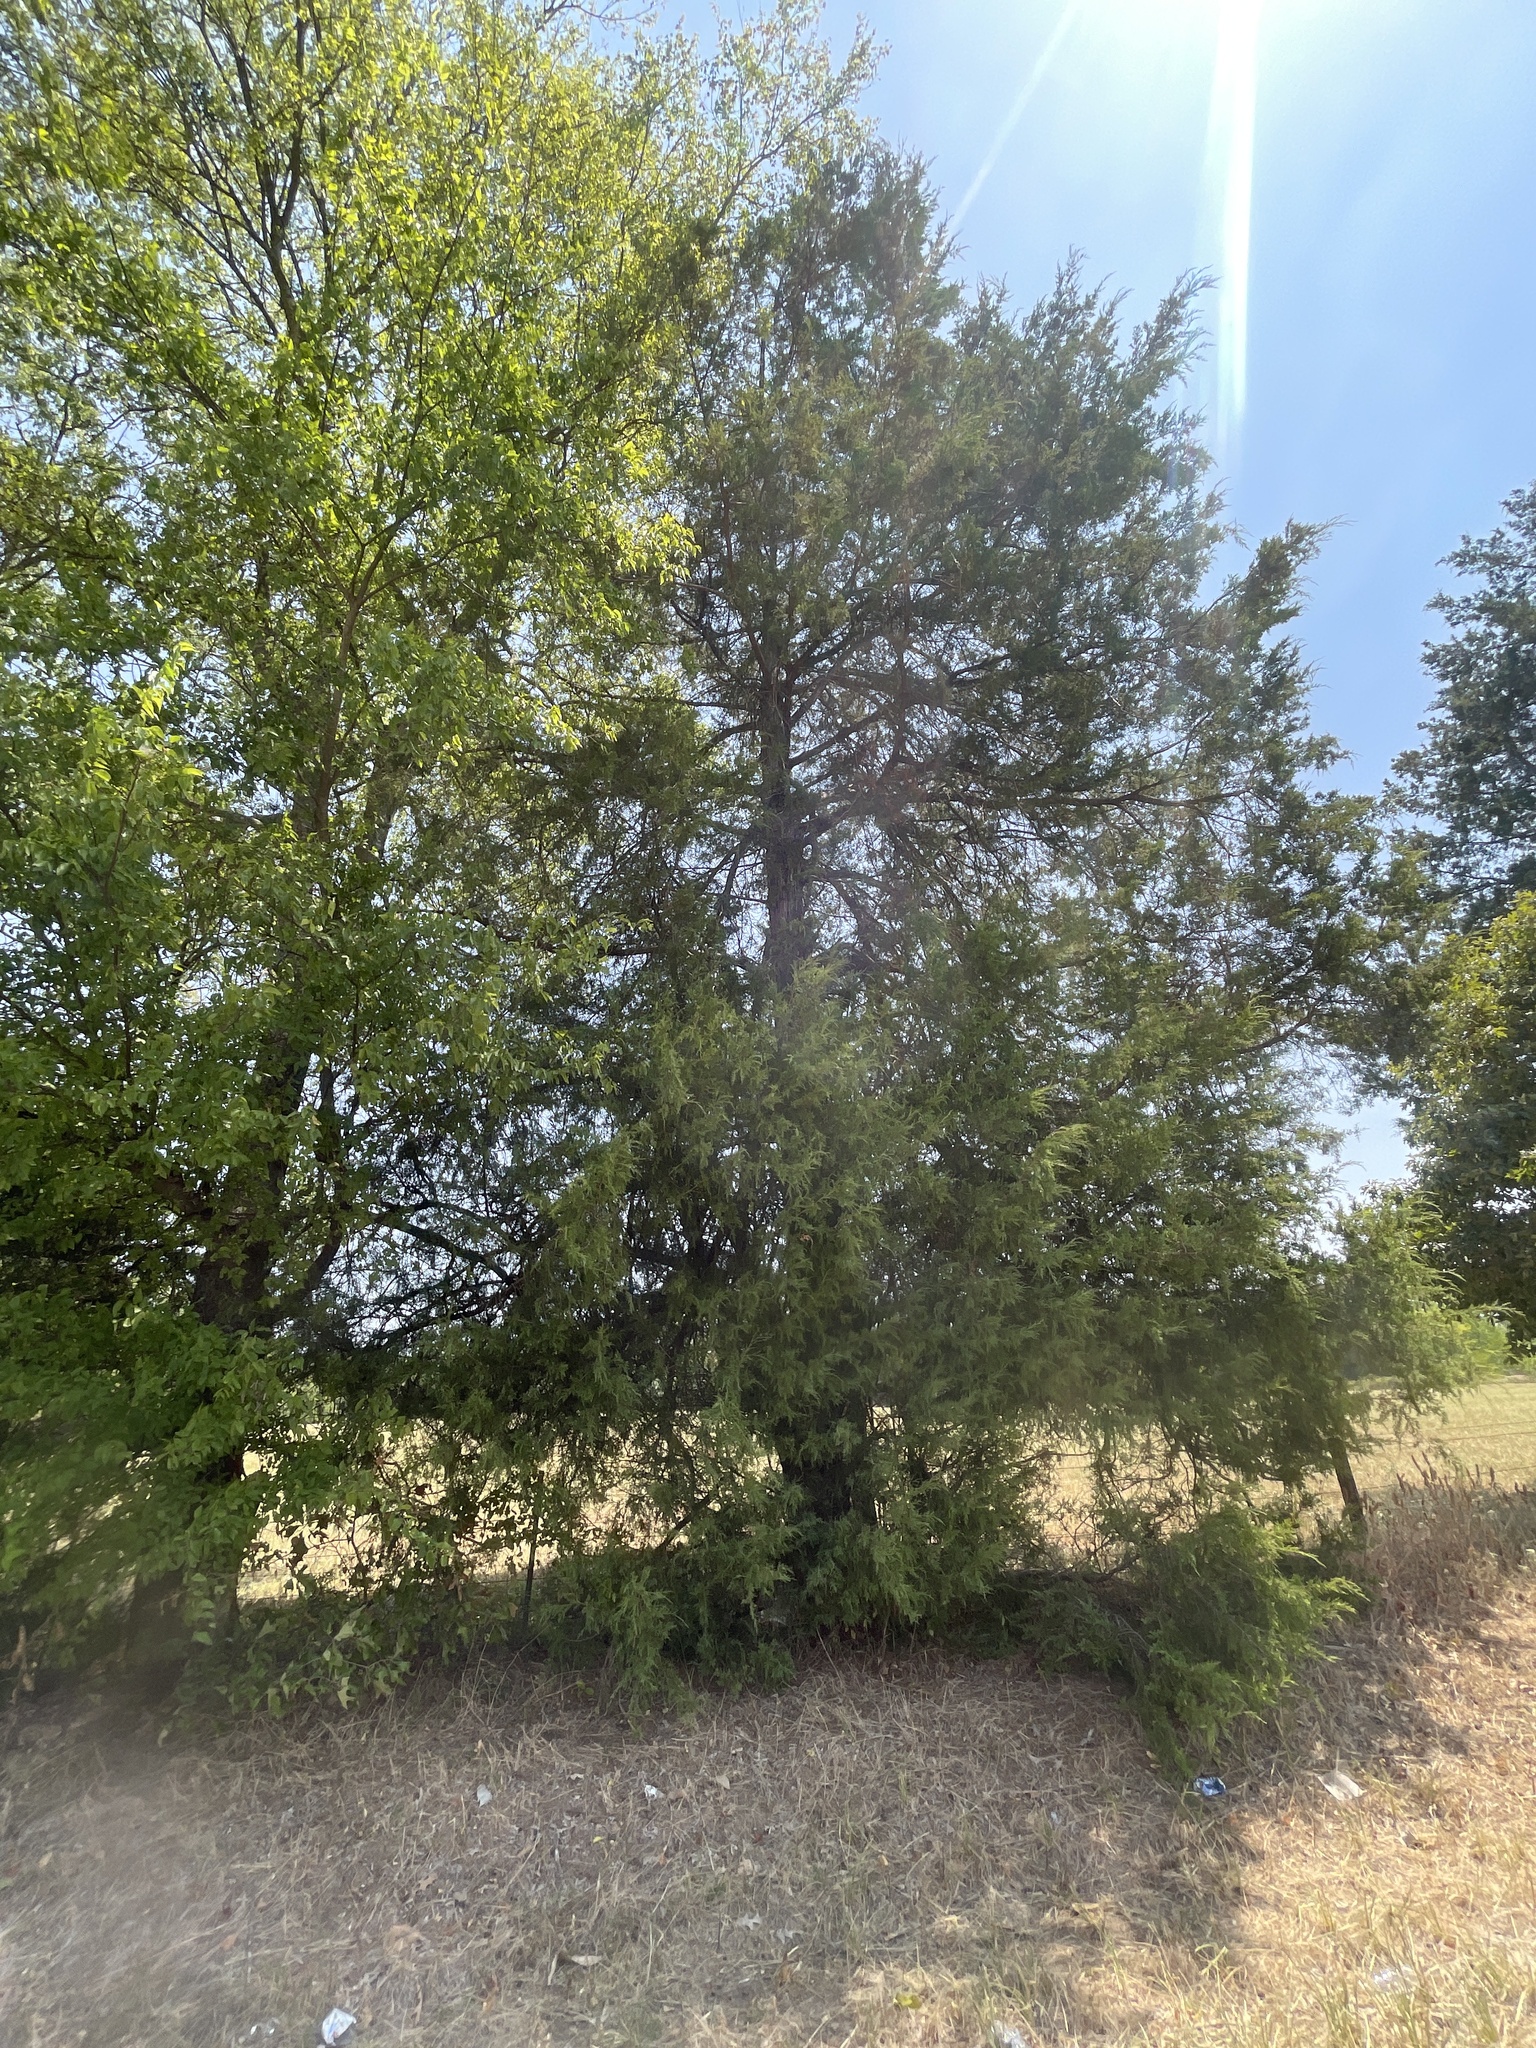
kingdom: Plantae
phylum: Tracheophyta
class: Pinopsida
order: Pinales
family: Cupressaceae
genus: Juniperus
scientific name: Juniperus virginiana
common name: Red juniper
